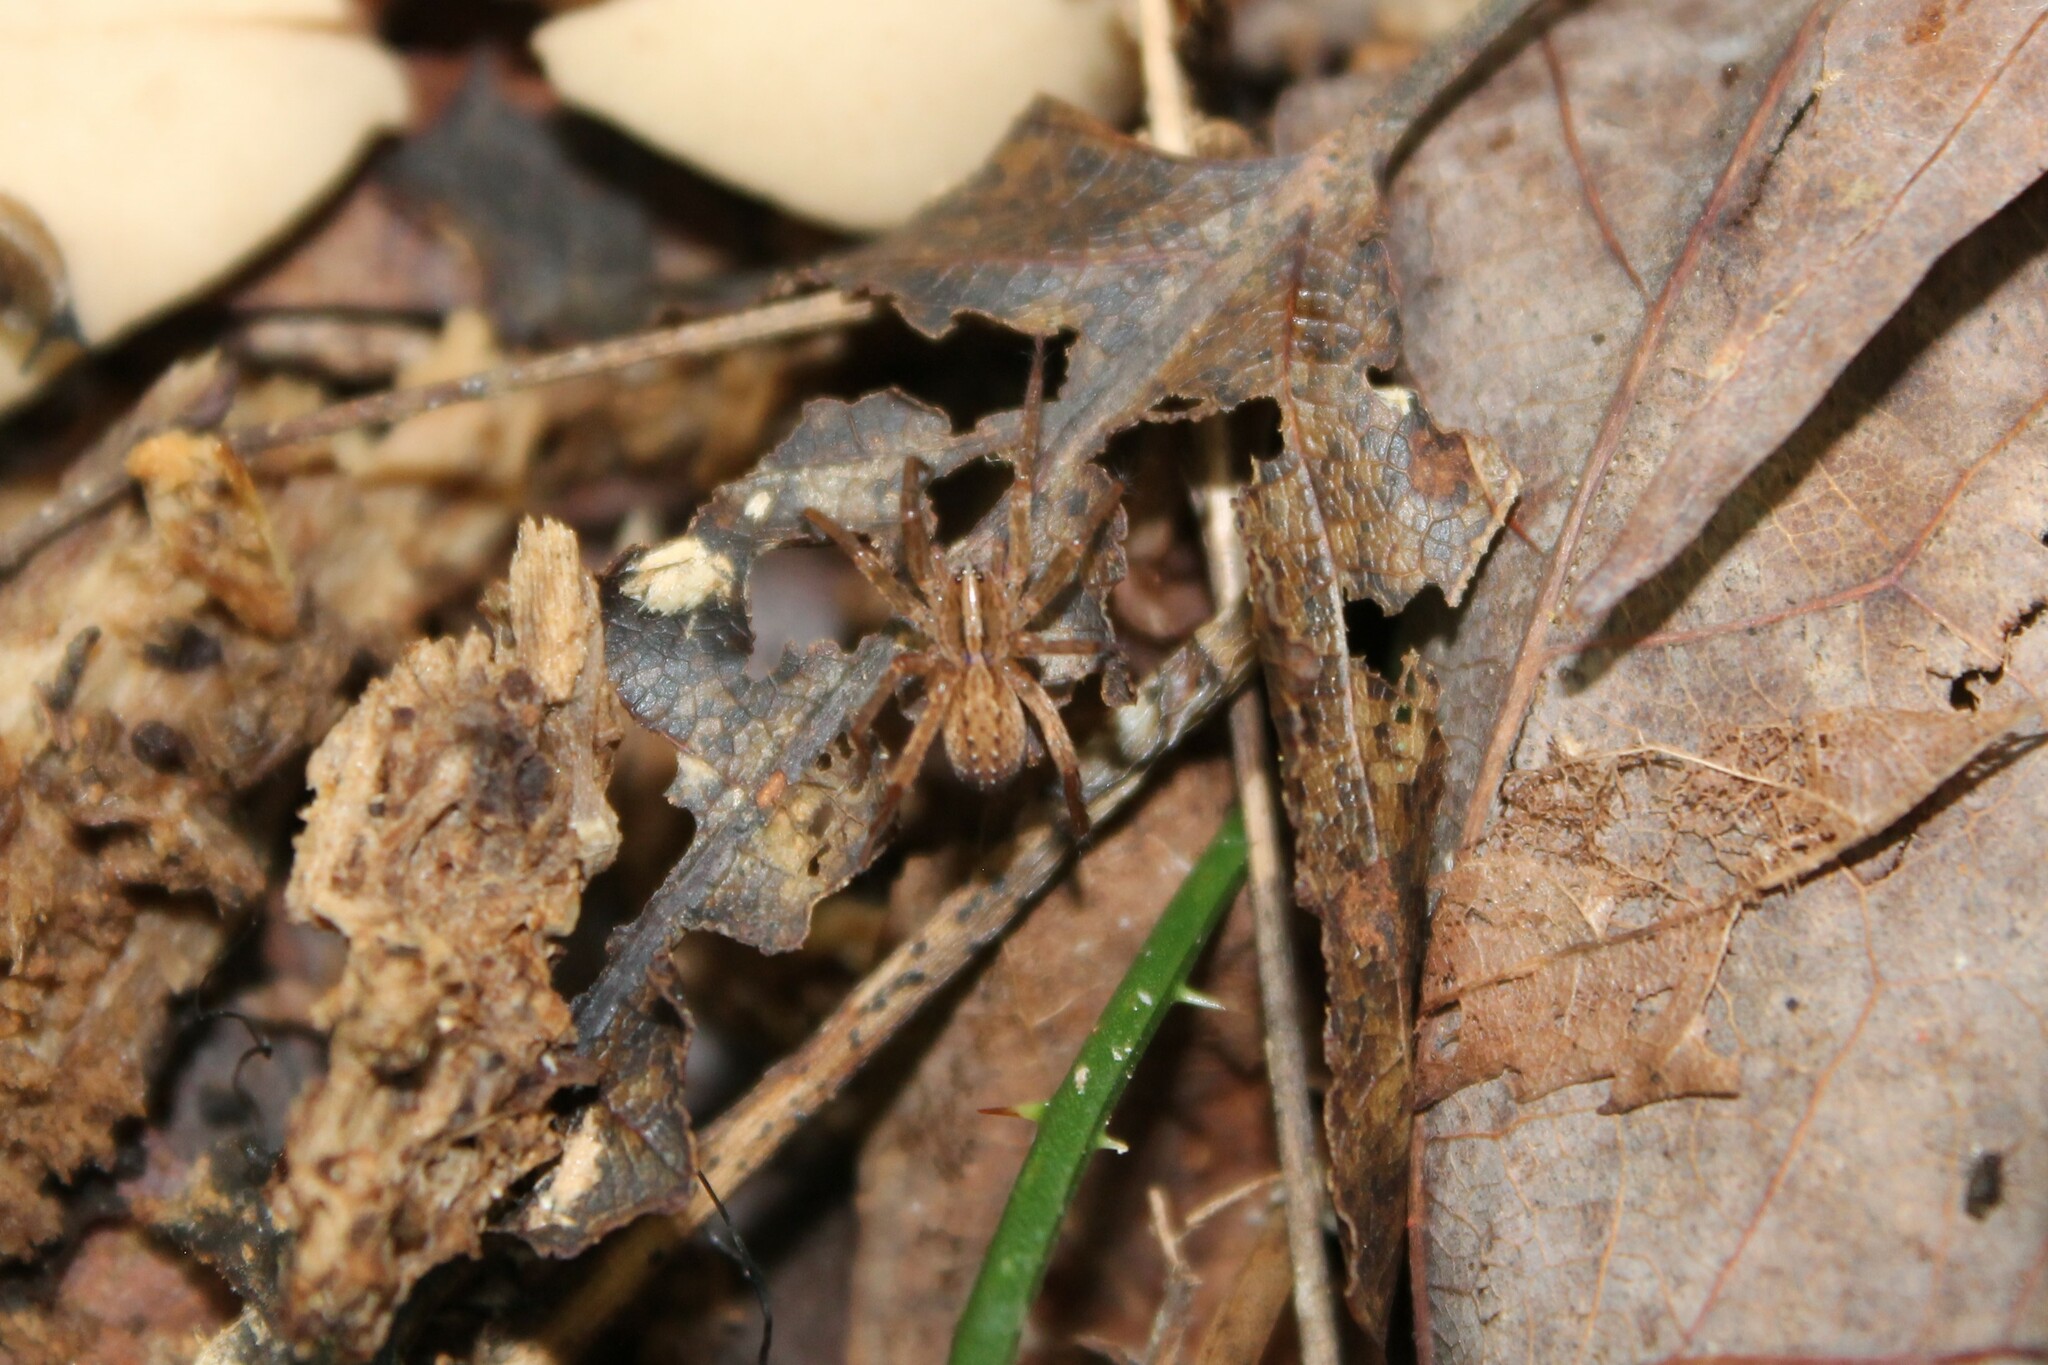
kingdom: Animalia
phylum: Arthropoda
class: Arachnida
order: Araneae
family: Ctenidae
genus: Anahita
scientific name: Anahita punctulata
